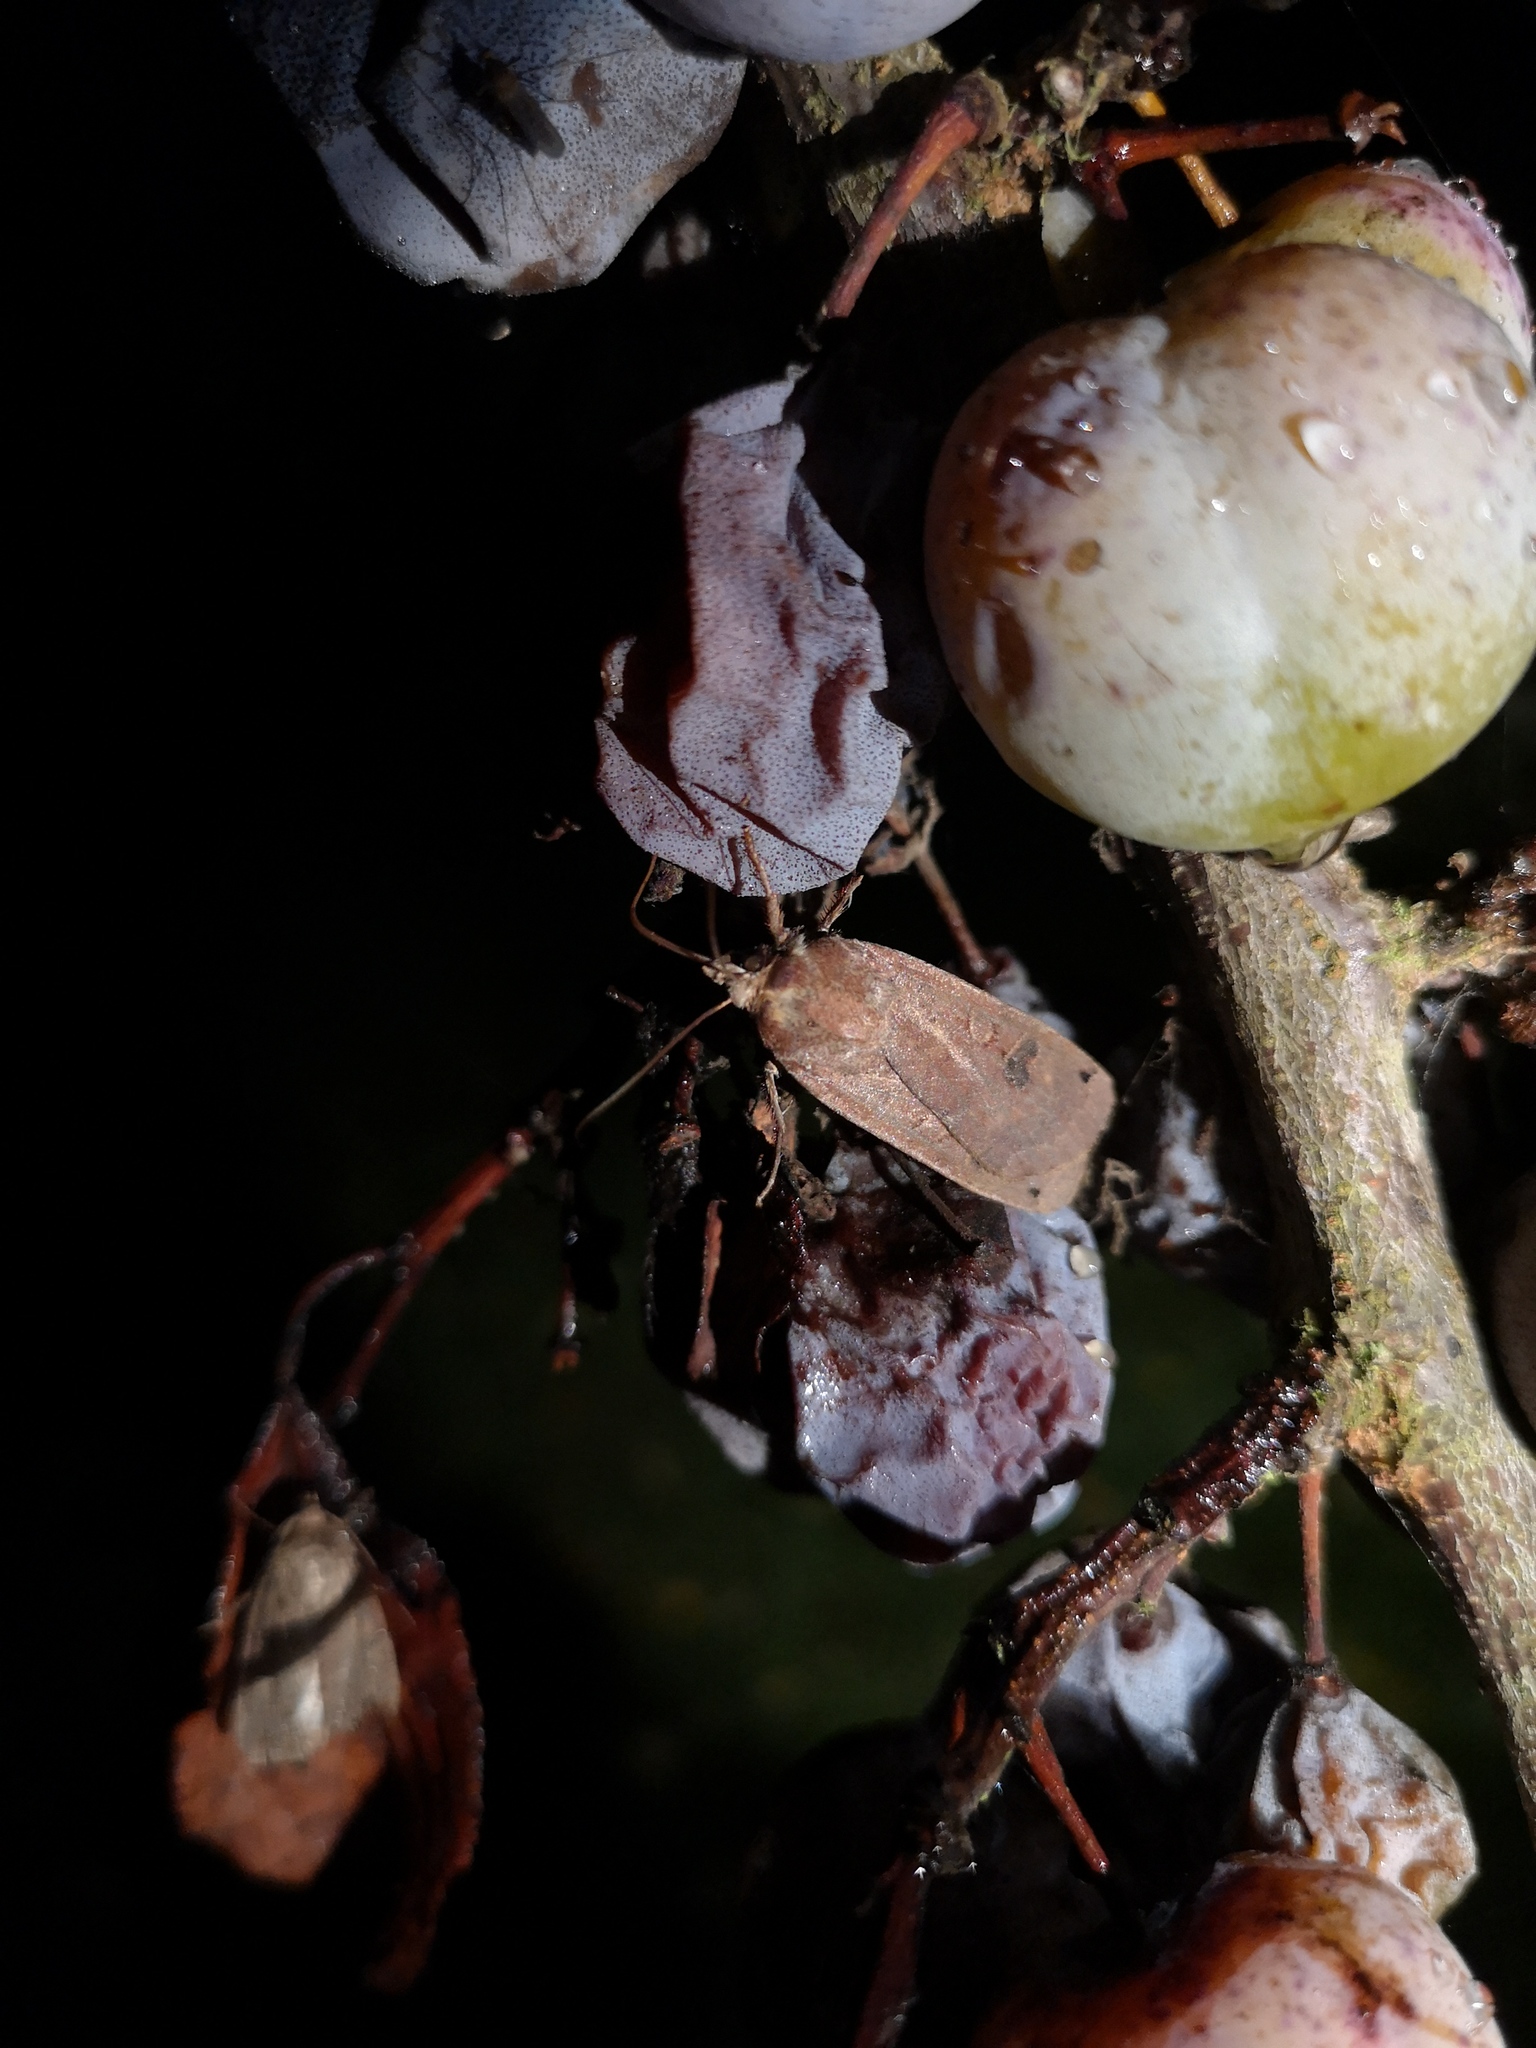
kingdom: Animalia
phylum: Arthropoda
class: Insecta
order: Lepidoptera
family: Noctuidae
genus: Noctua
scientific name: Noctua pronuba
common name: Large yellow underwing
